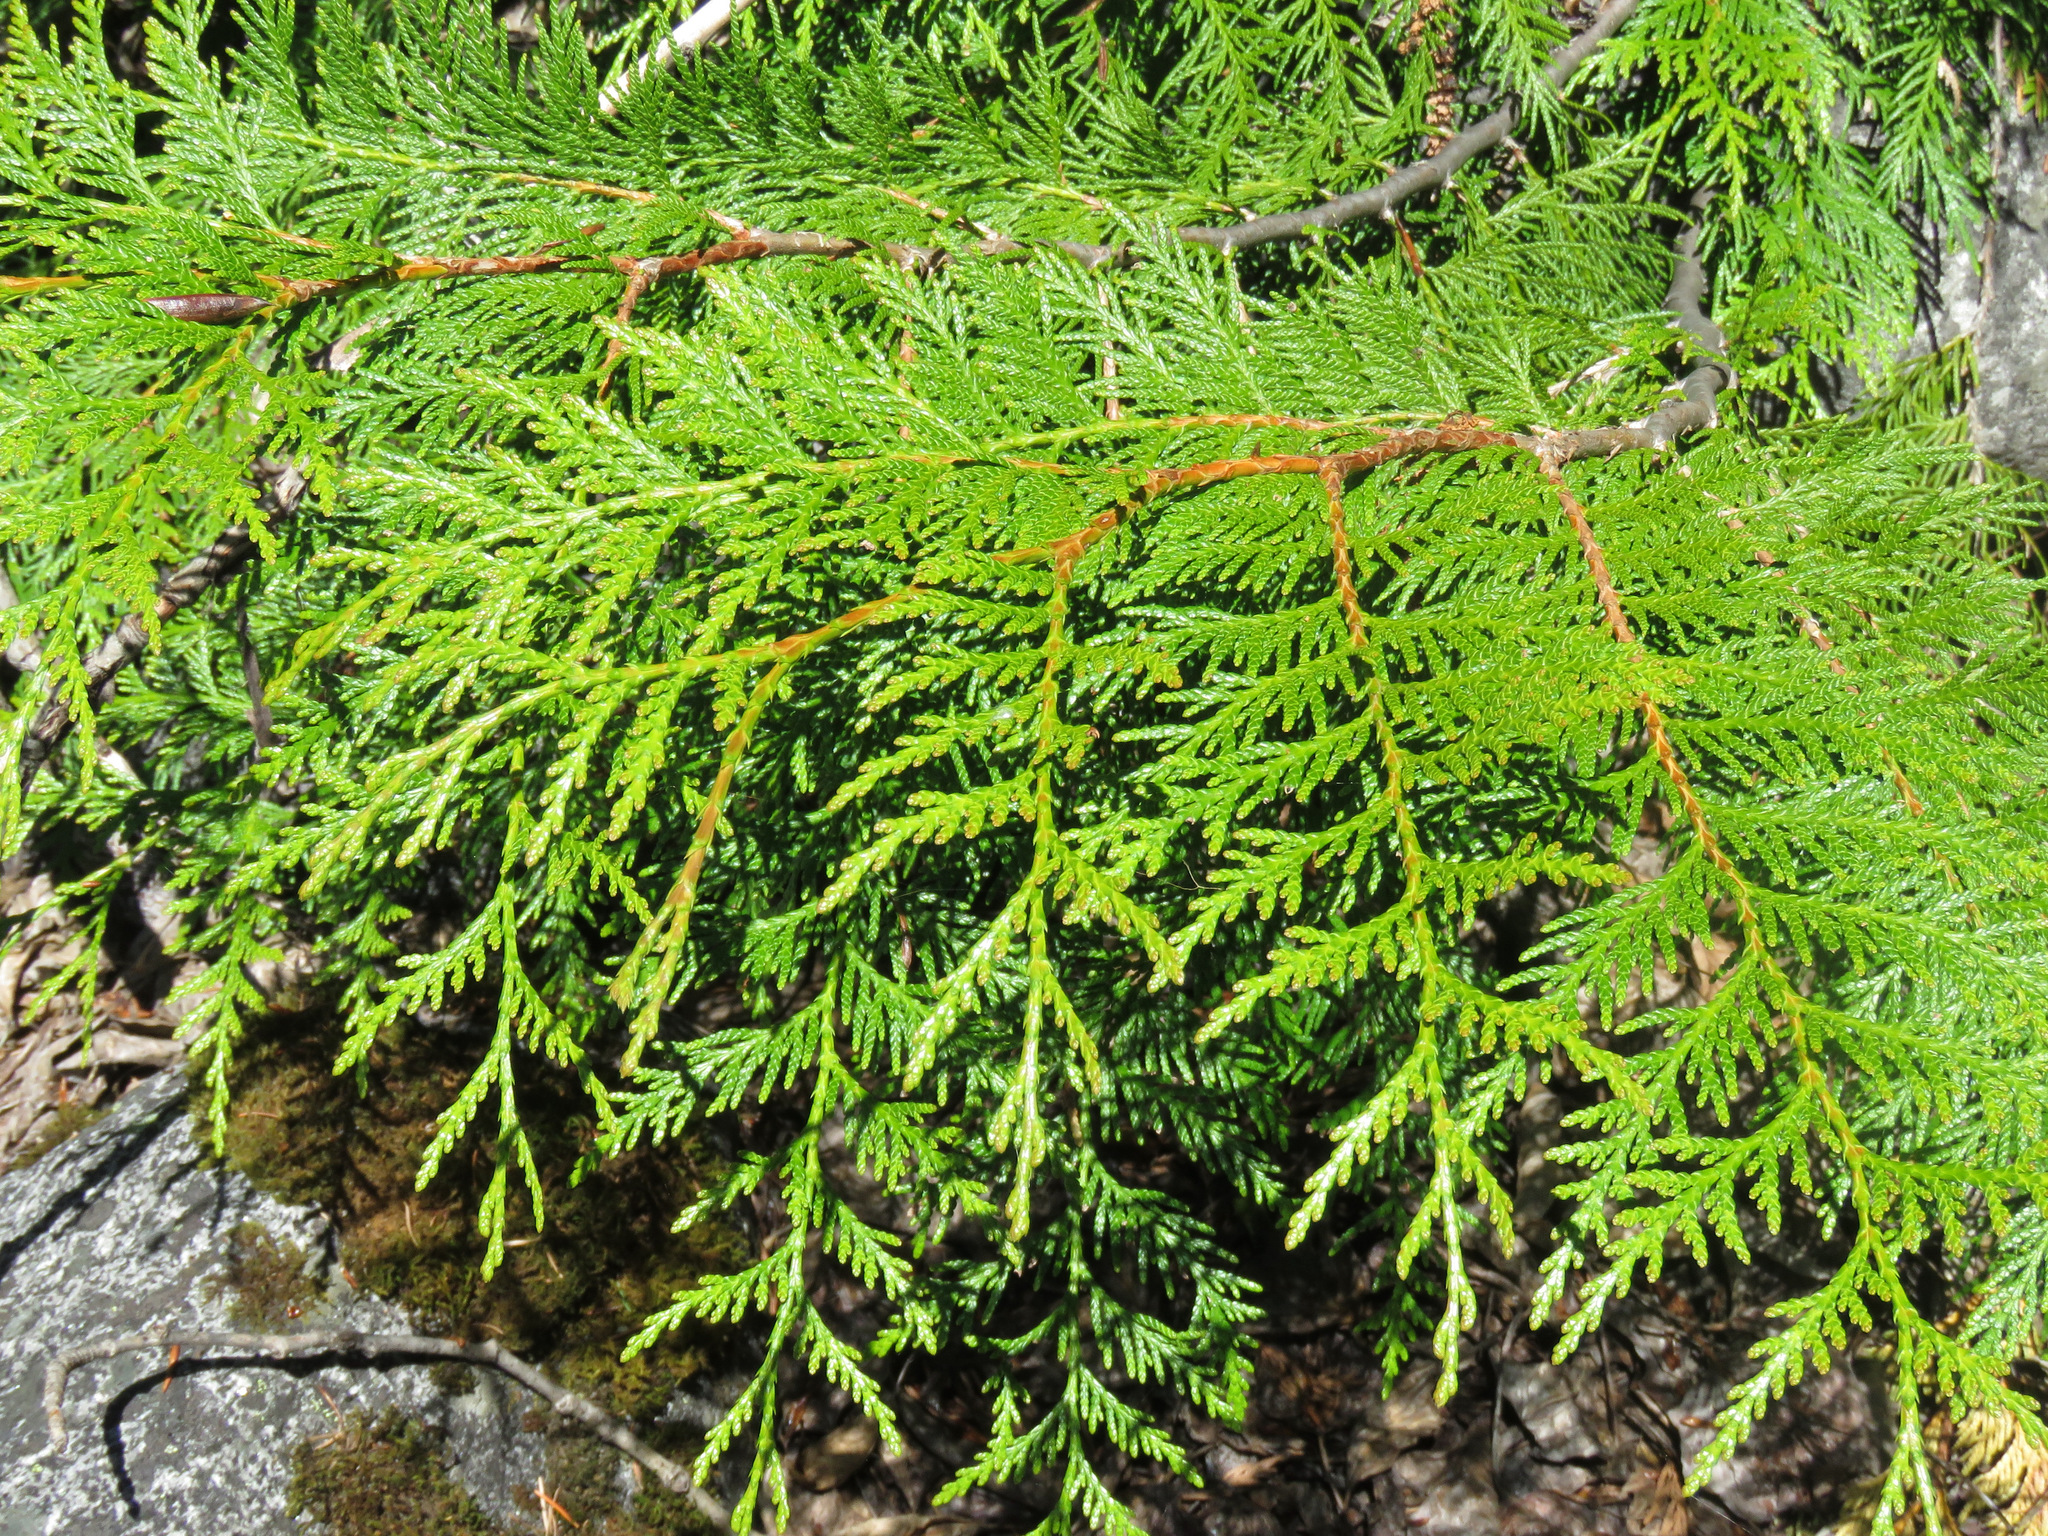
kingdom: Plantae
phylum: Tracheophyta
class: Pinopsida
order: Pinales
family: Cupressaceae
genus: Thuja
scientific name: Thuja plicata
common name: Western red-cedar
